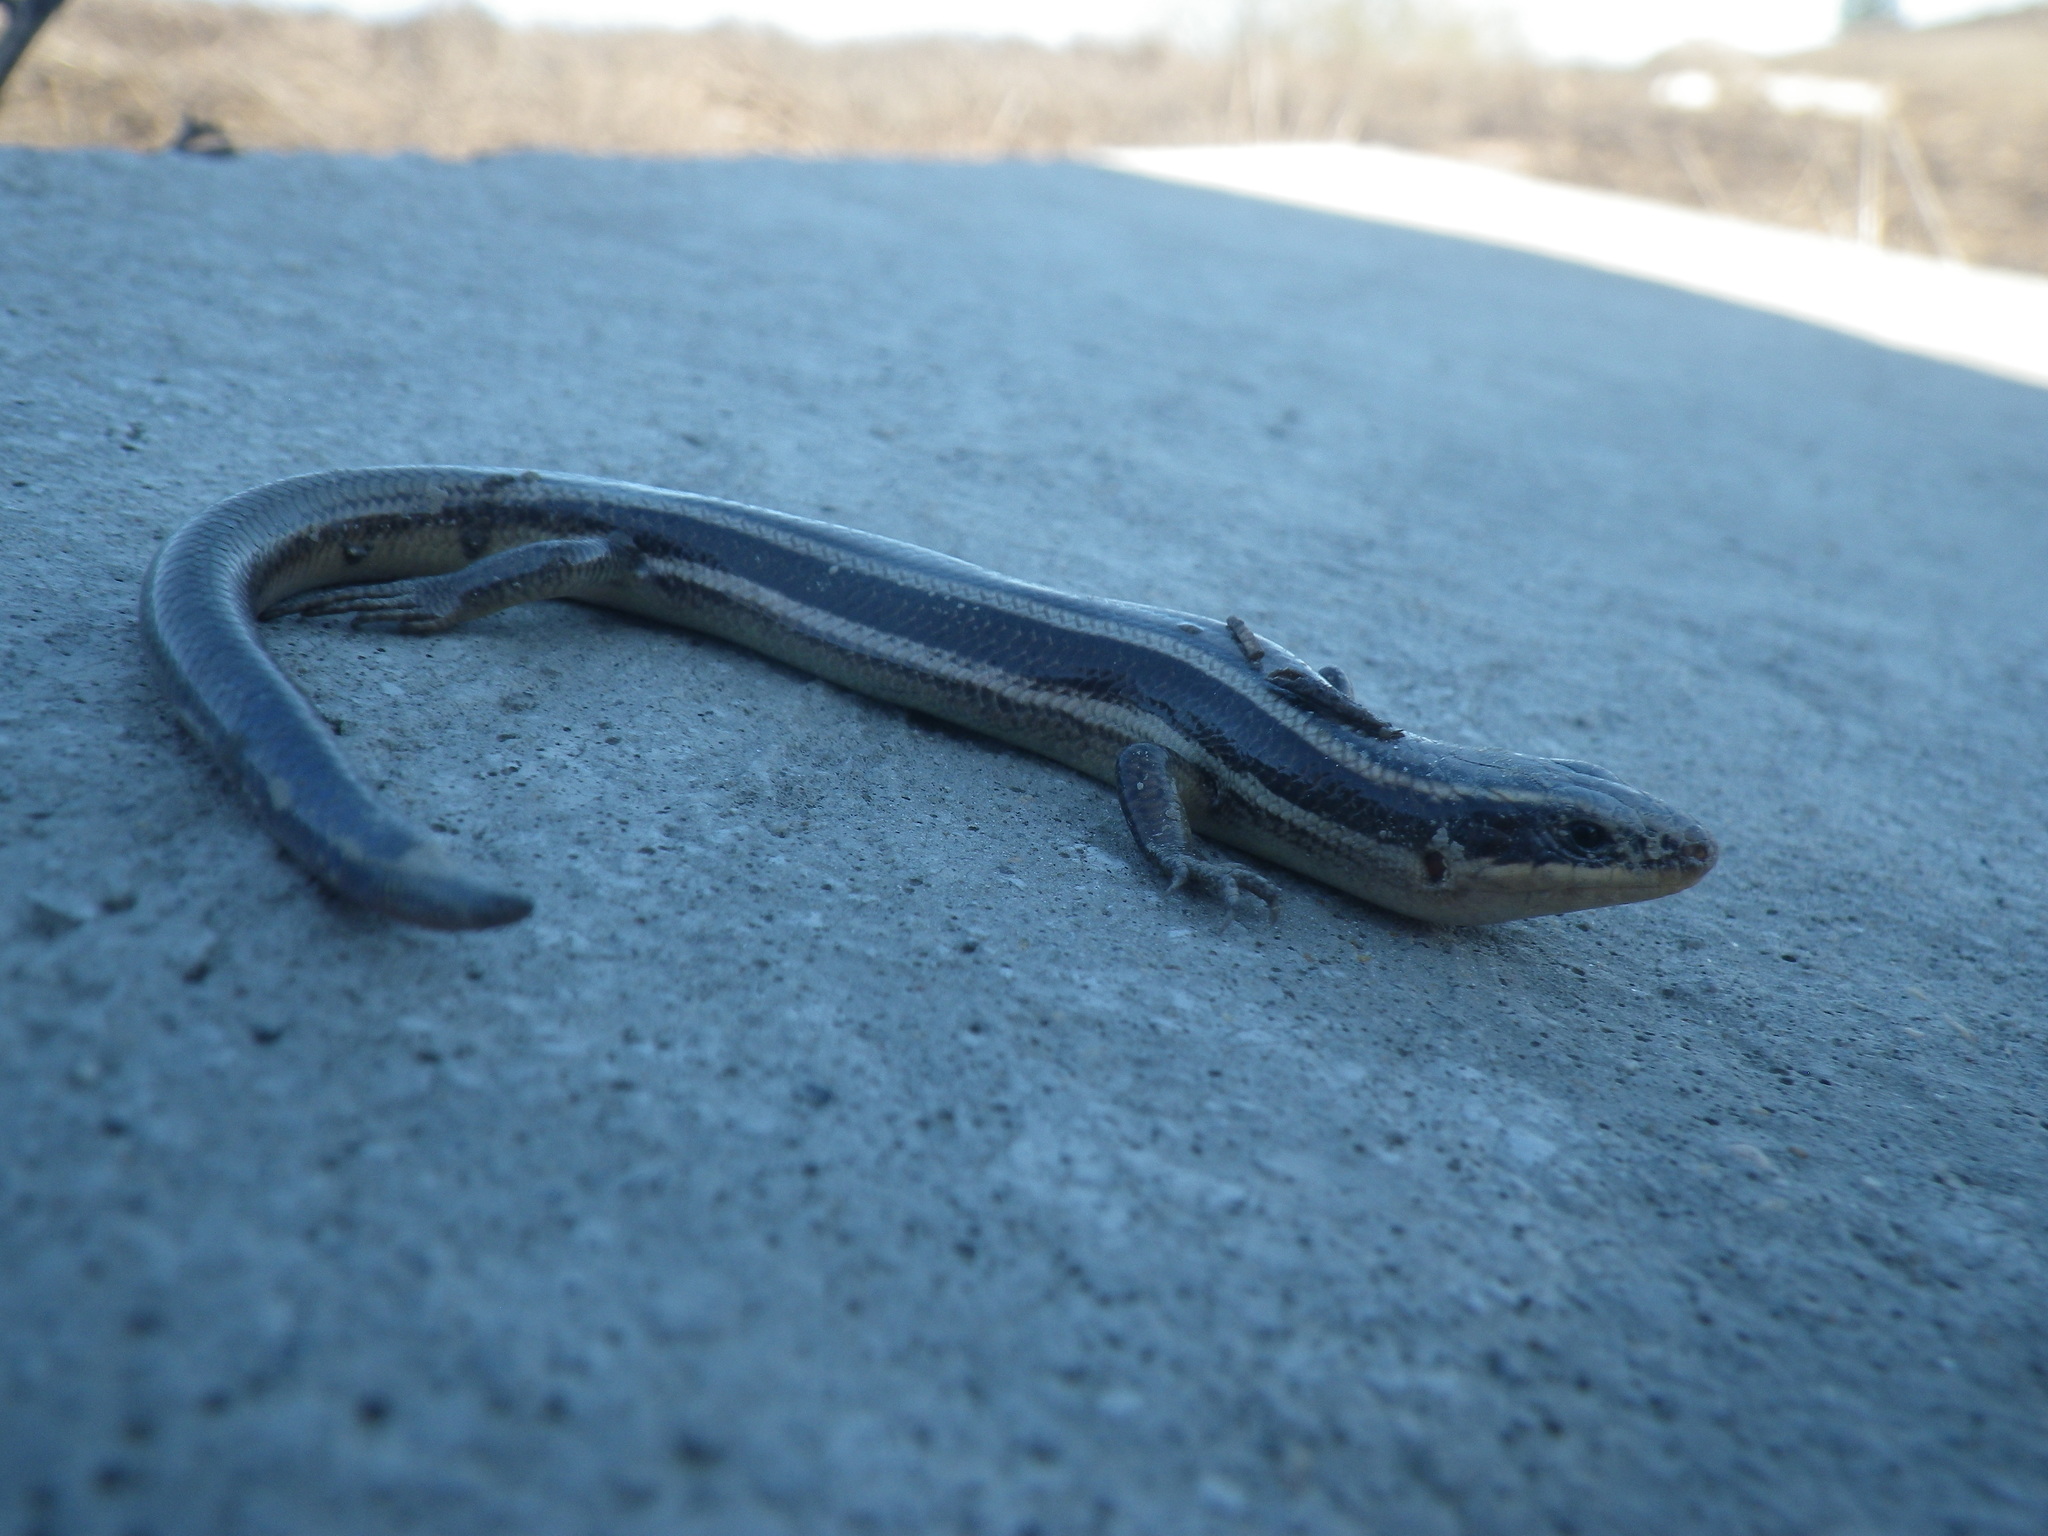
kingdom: Animalia
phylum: Chordata
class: Squamata
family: Scincidae
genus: Plestiodon
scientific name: Plestiodon gilberti
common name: Gilbert's skink
